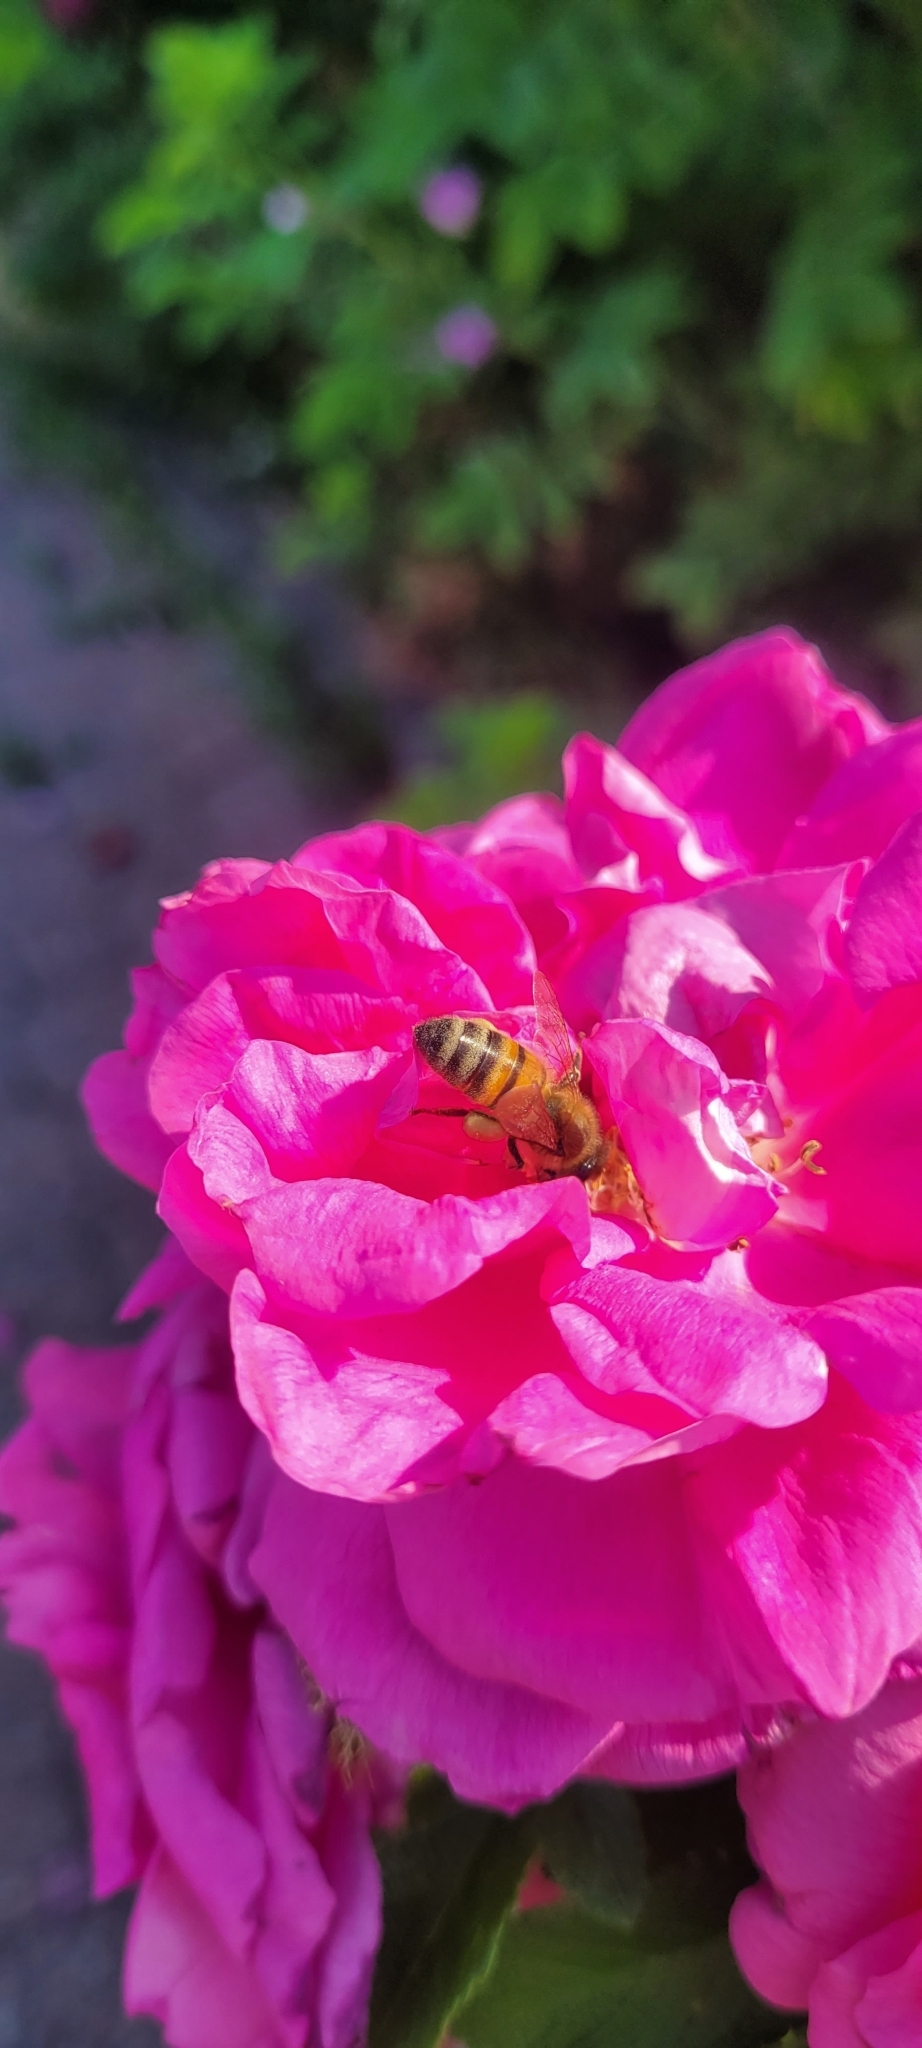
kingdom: Animalia
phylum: Arthropoda
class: Insecta
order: Hymenoptera
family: Apidae
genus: Apis
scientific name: Apis mellifera
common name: Honey bee
